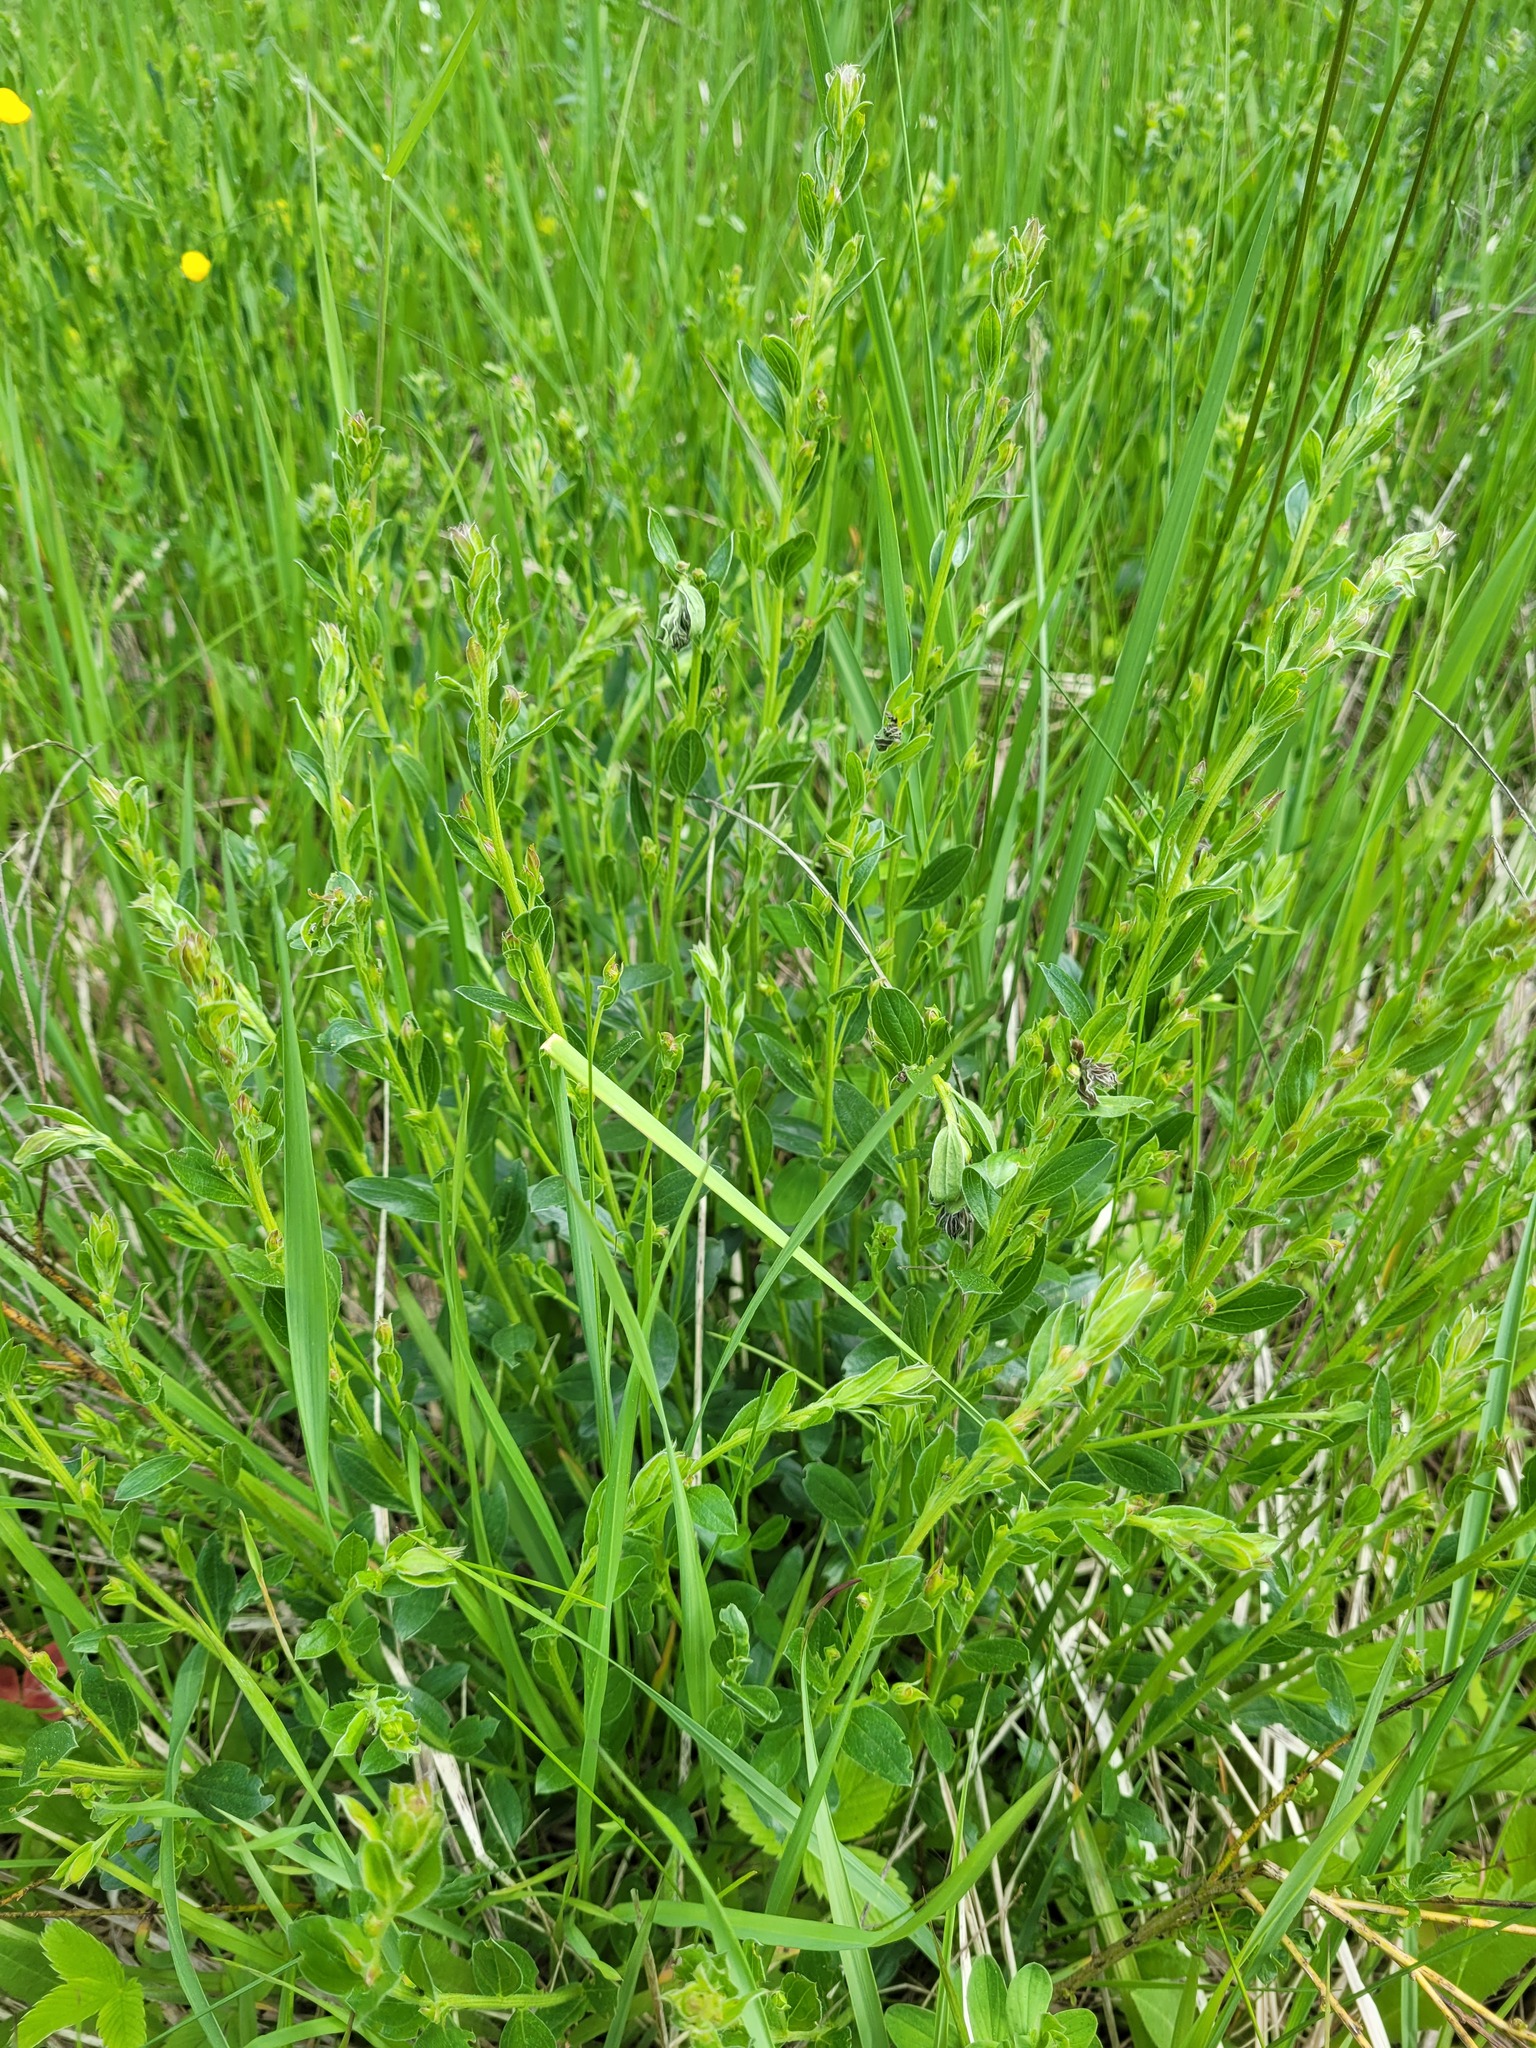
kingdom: Plantae
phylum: Tracheophyta
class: Magnoliopsida
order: Fabales
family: Fabaceae
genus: Genista
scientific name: Genista tinctoria
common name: Dyer's greenweed
